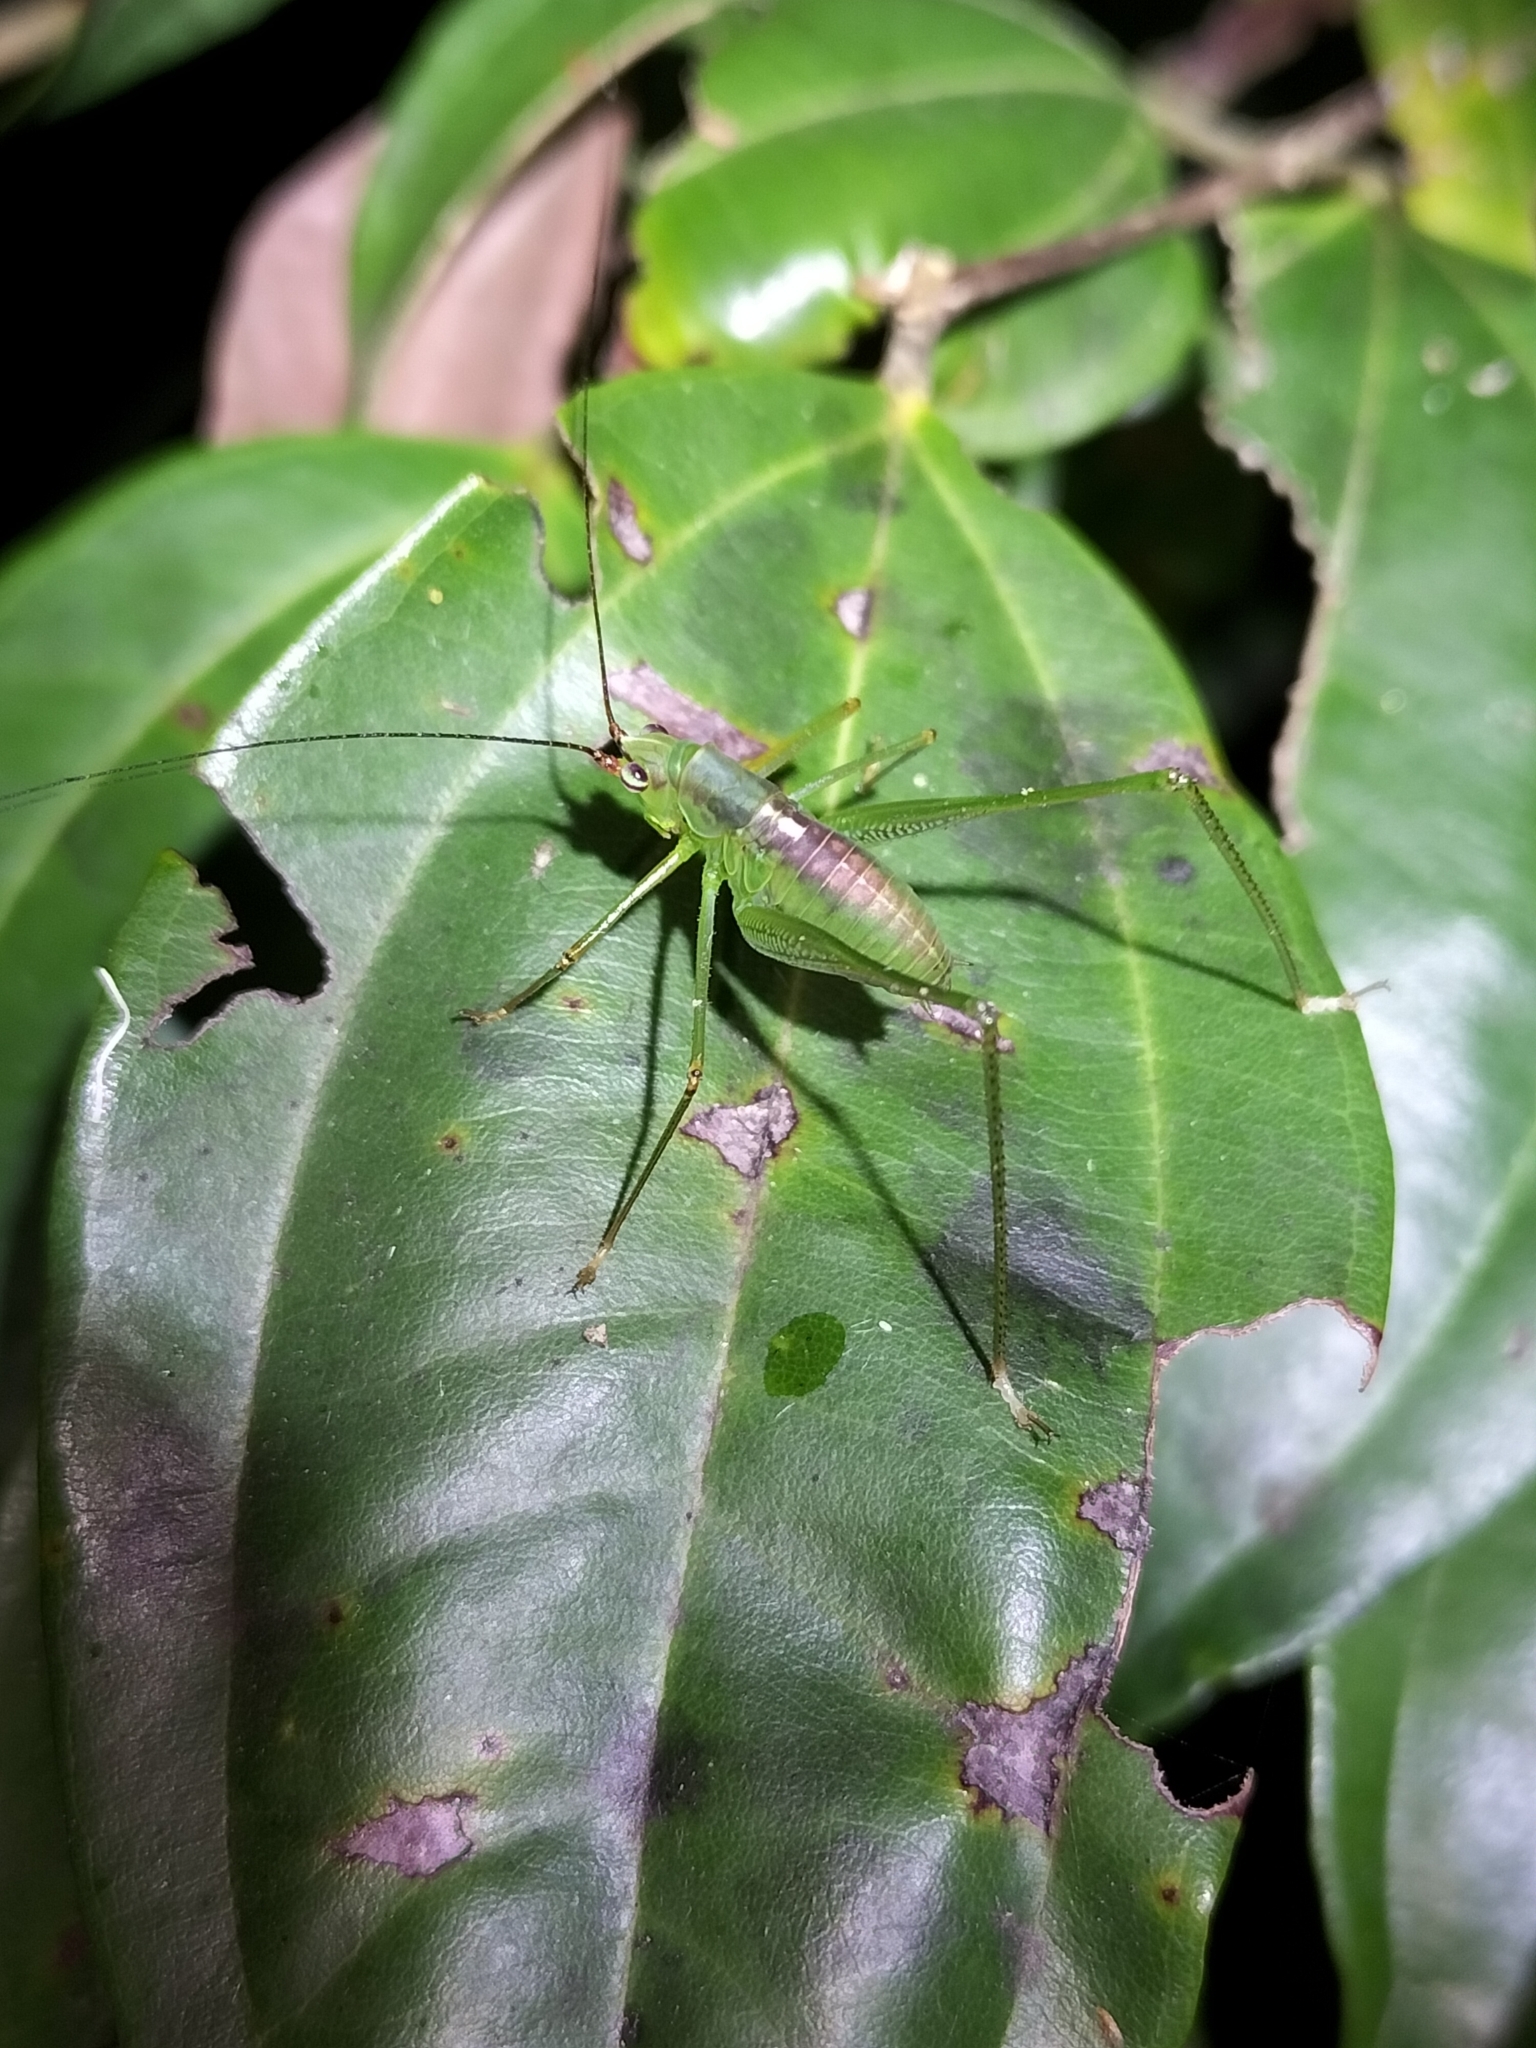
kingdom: Animalia
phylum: Arthropoda
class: Insecta
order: Orthoptera
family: Tettigoniidae
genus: Leucopodoptera
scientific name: Leucopodoptera eumundii
